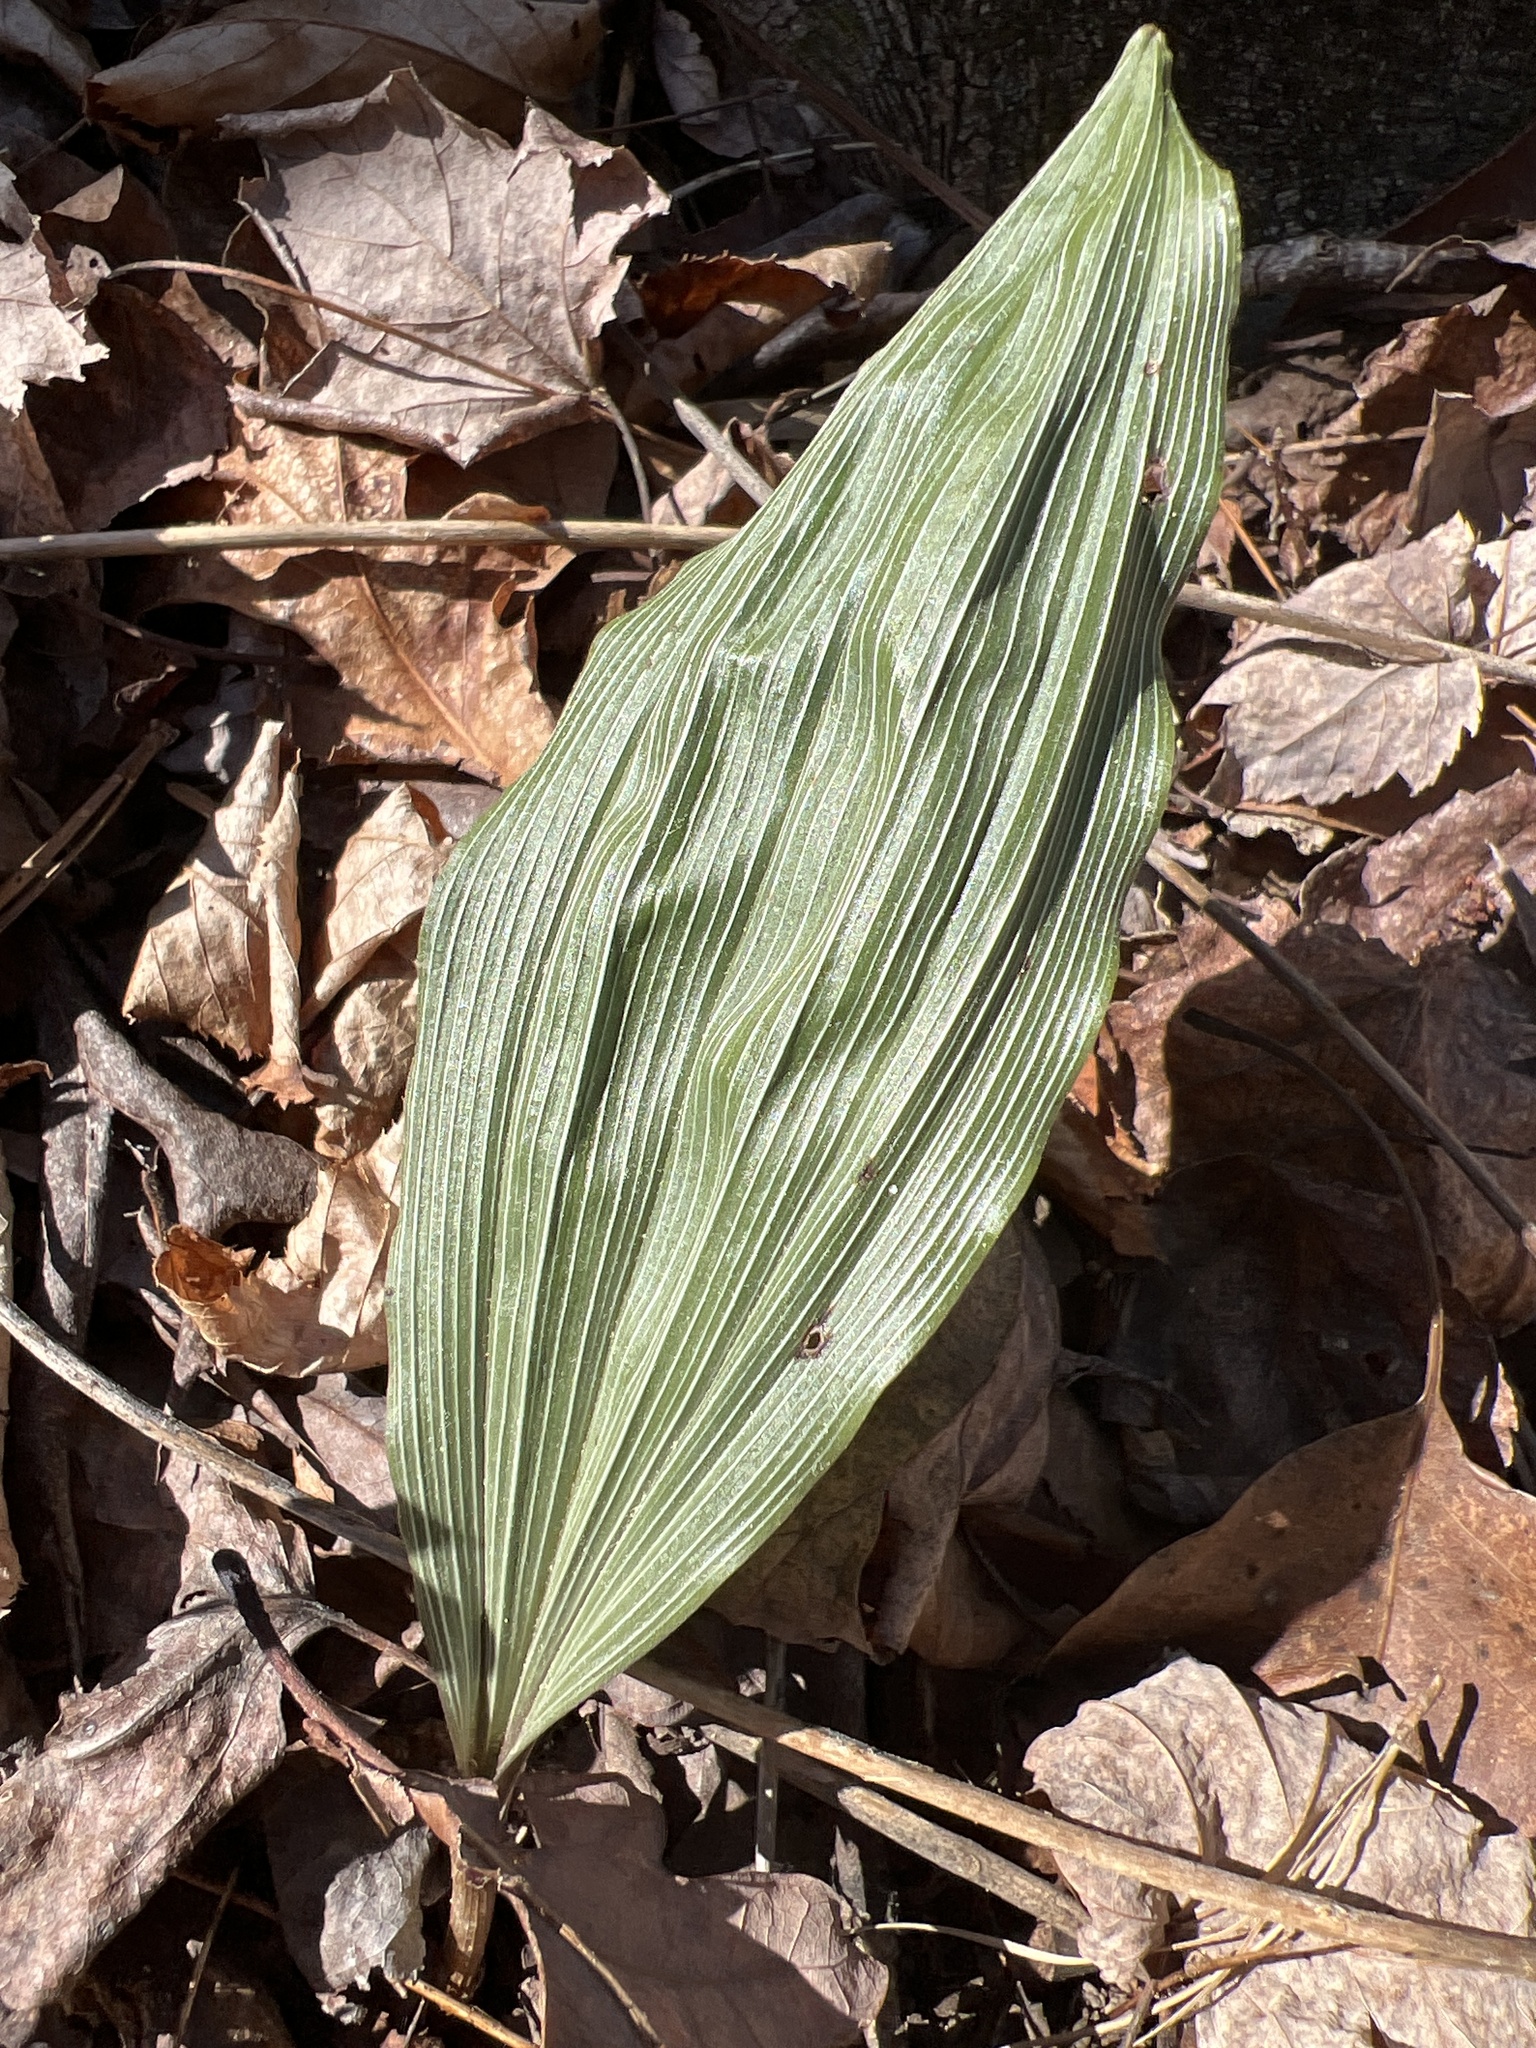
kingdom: Plantae
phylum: Tracheophyta
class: Liliopsida
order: Asparagales
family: Orchidaceae
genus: Aplectrum
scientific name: Aplectrum hyemale
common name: Adam-and-eve
